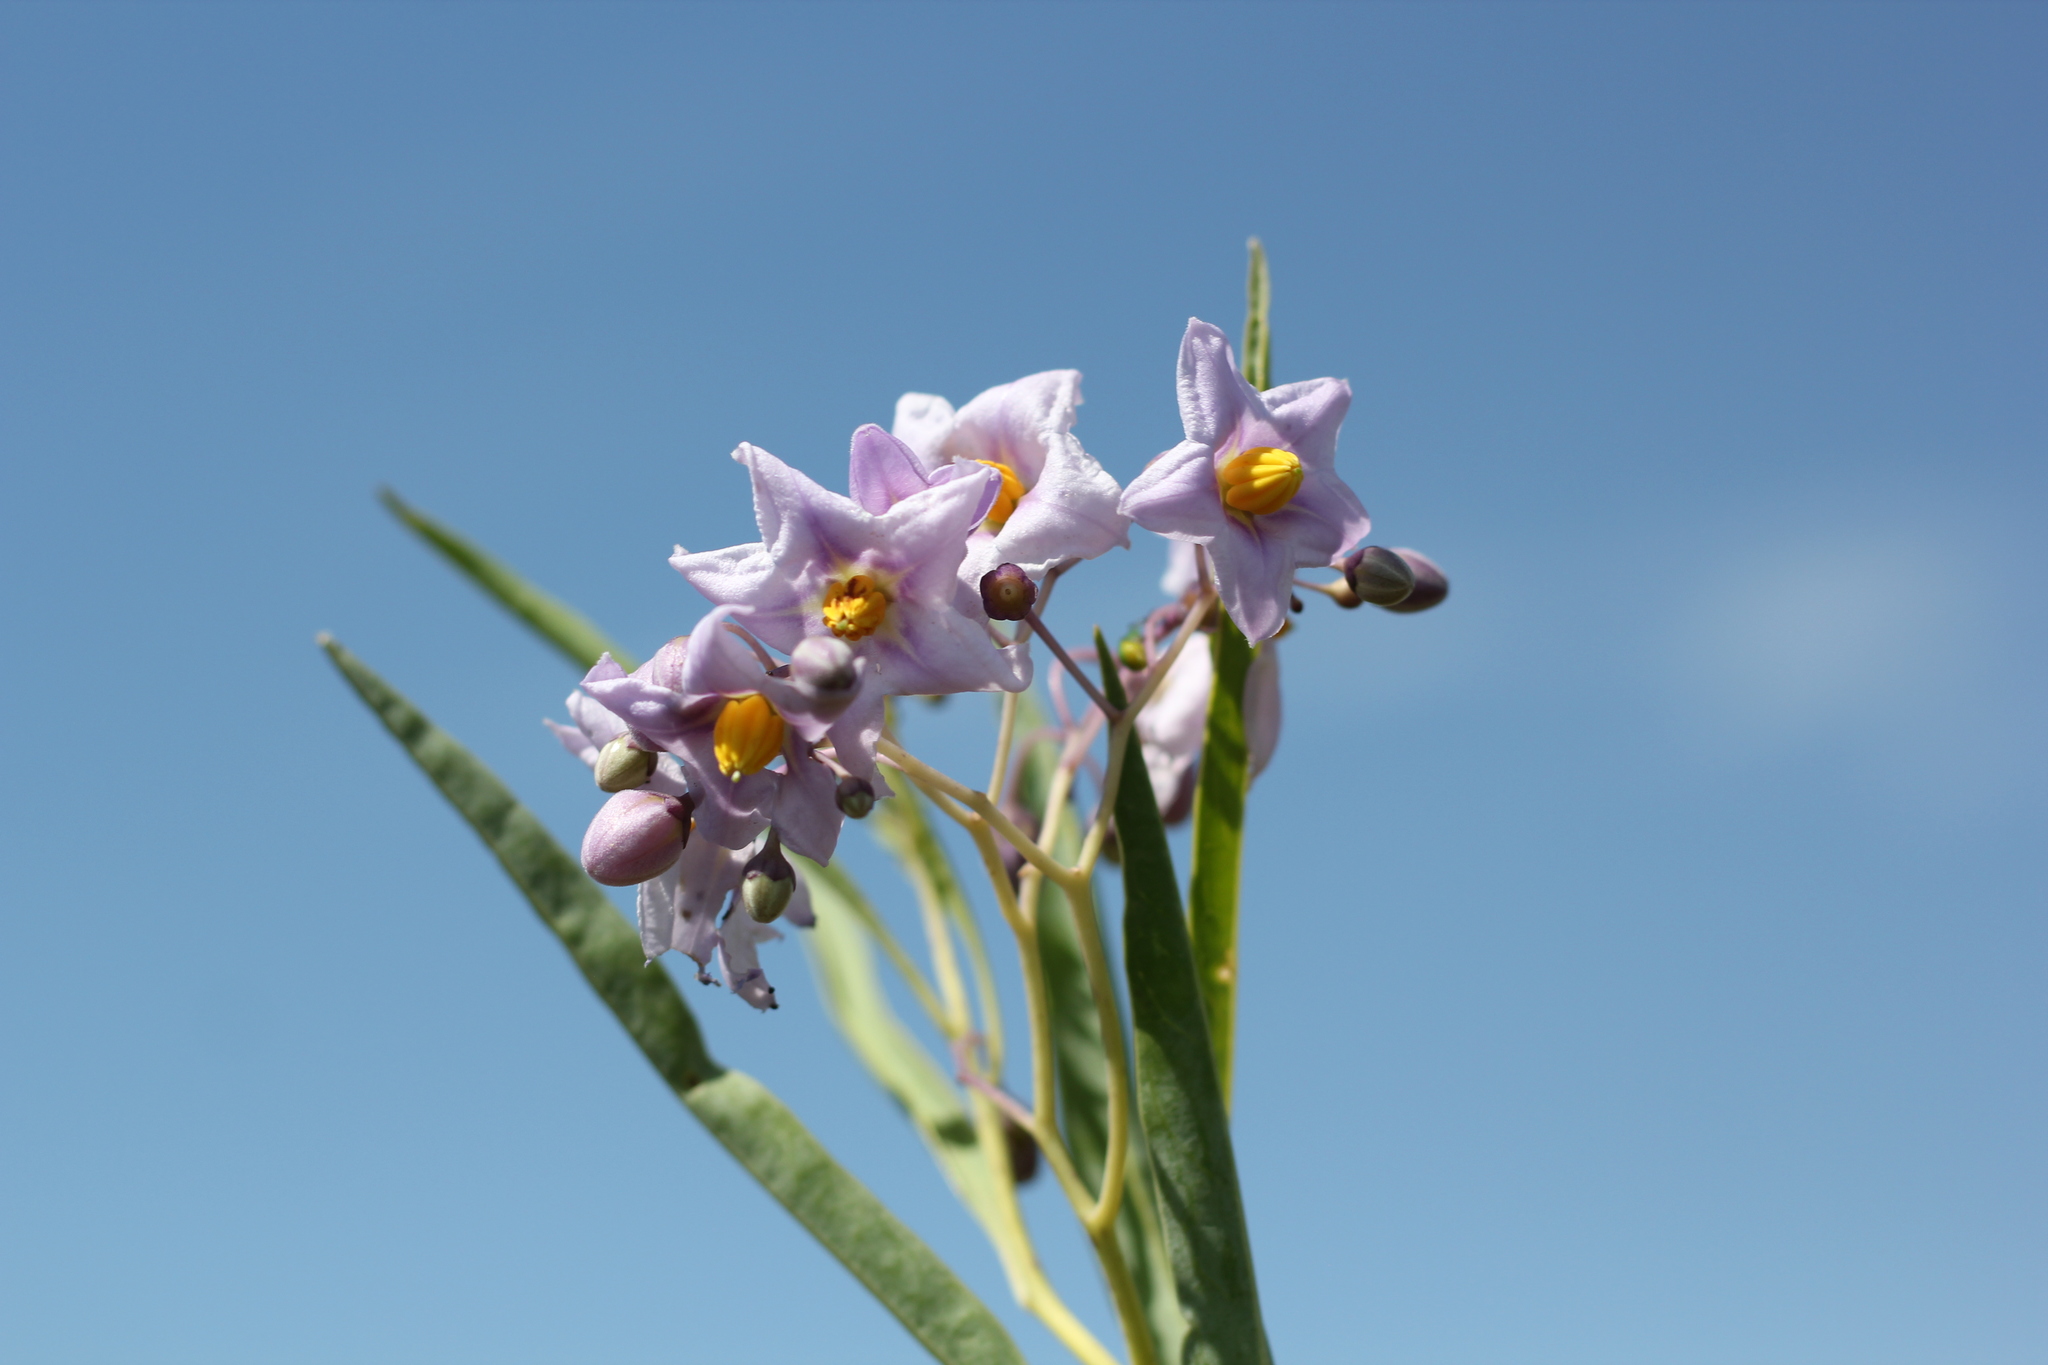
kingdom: Plantae
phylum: Tracheophyta
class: Magnoliopsida
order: Solanales
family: Solanaceae
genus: Solanum
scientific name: Solanum glaucophyllum
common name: Waxyleaf nightshade
